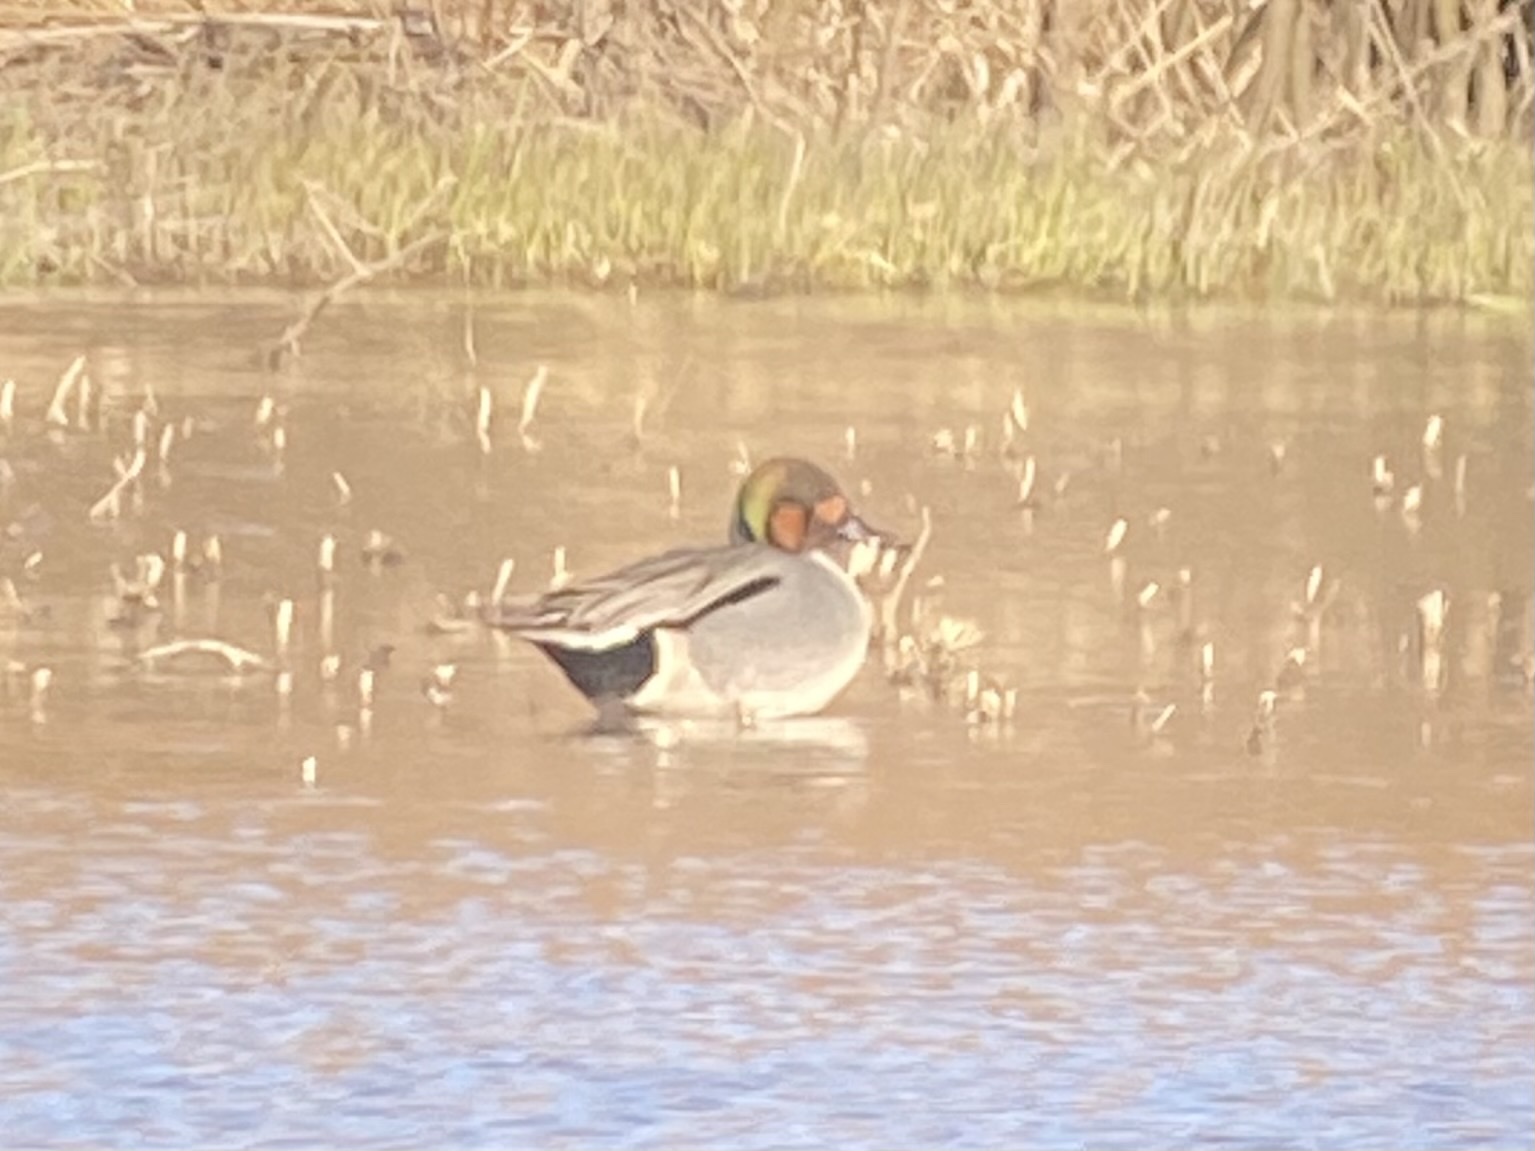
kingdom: Animalia
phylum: Chordata
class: Aves
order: Anseriformes
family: Anatidae
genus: Anas
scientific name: Anas
